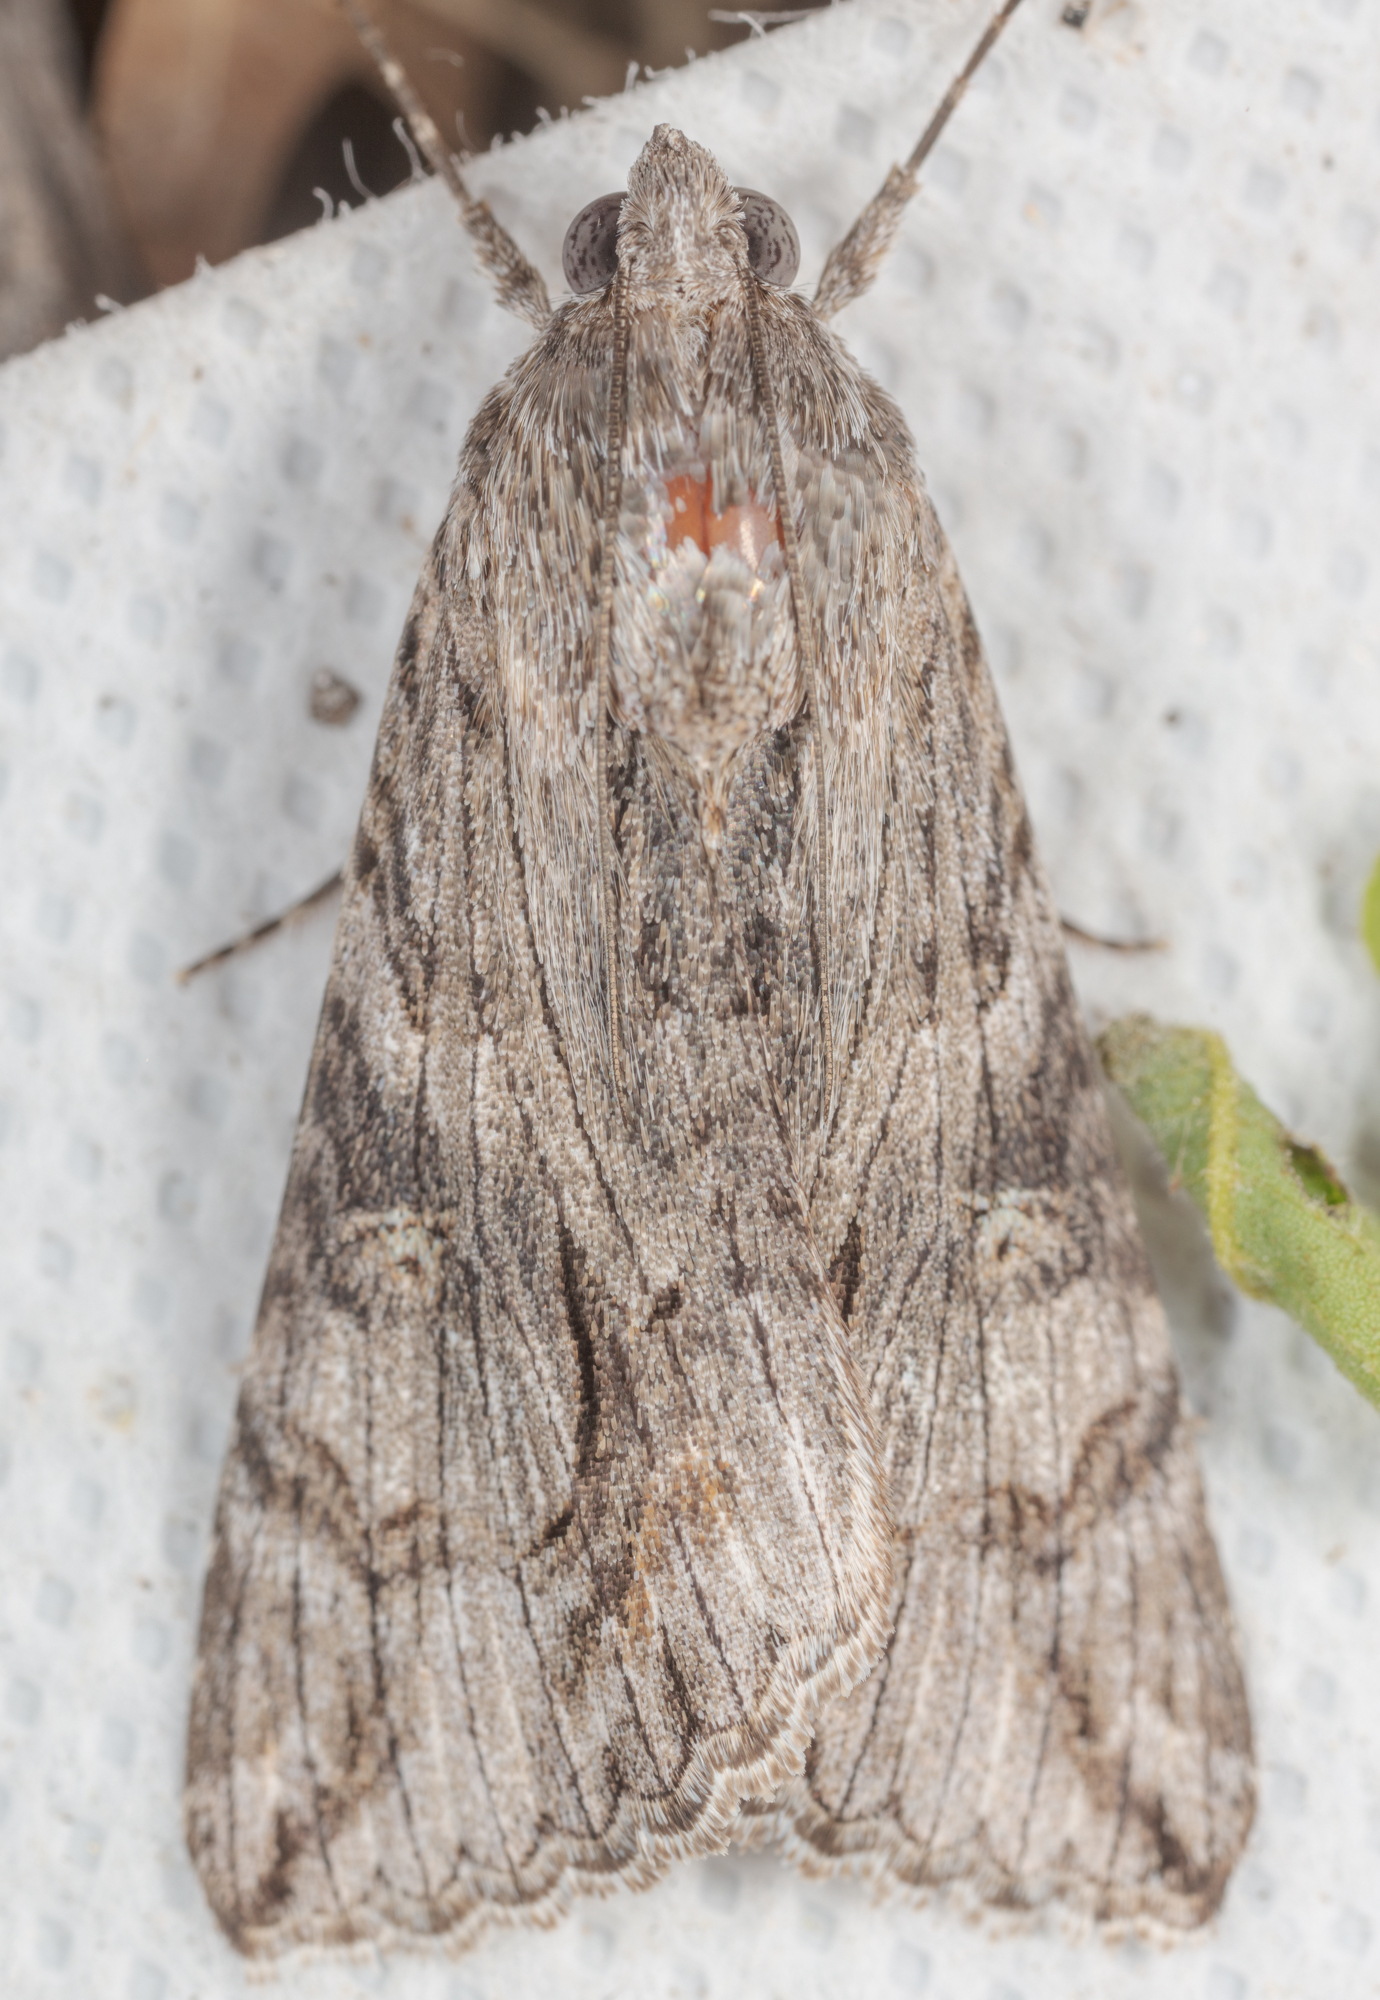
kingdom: Animalia
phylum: Arthropoda
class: Insecta
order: Lepidoptera
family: Erebidae
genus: Melipotis
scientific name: Melipotis jucunda
